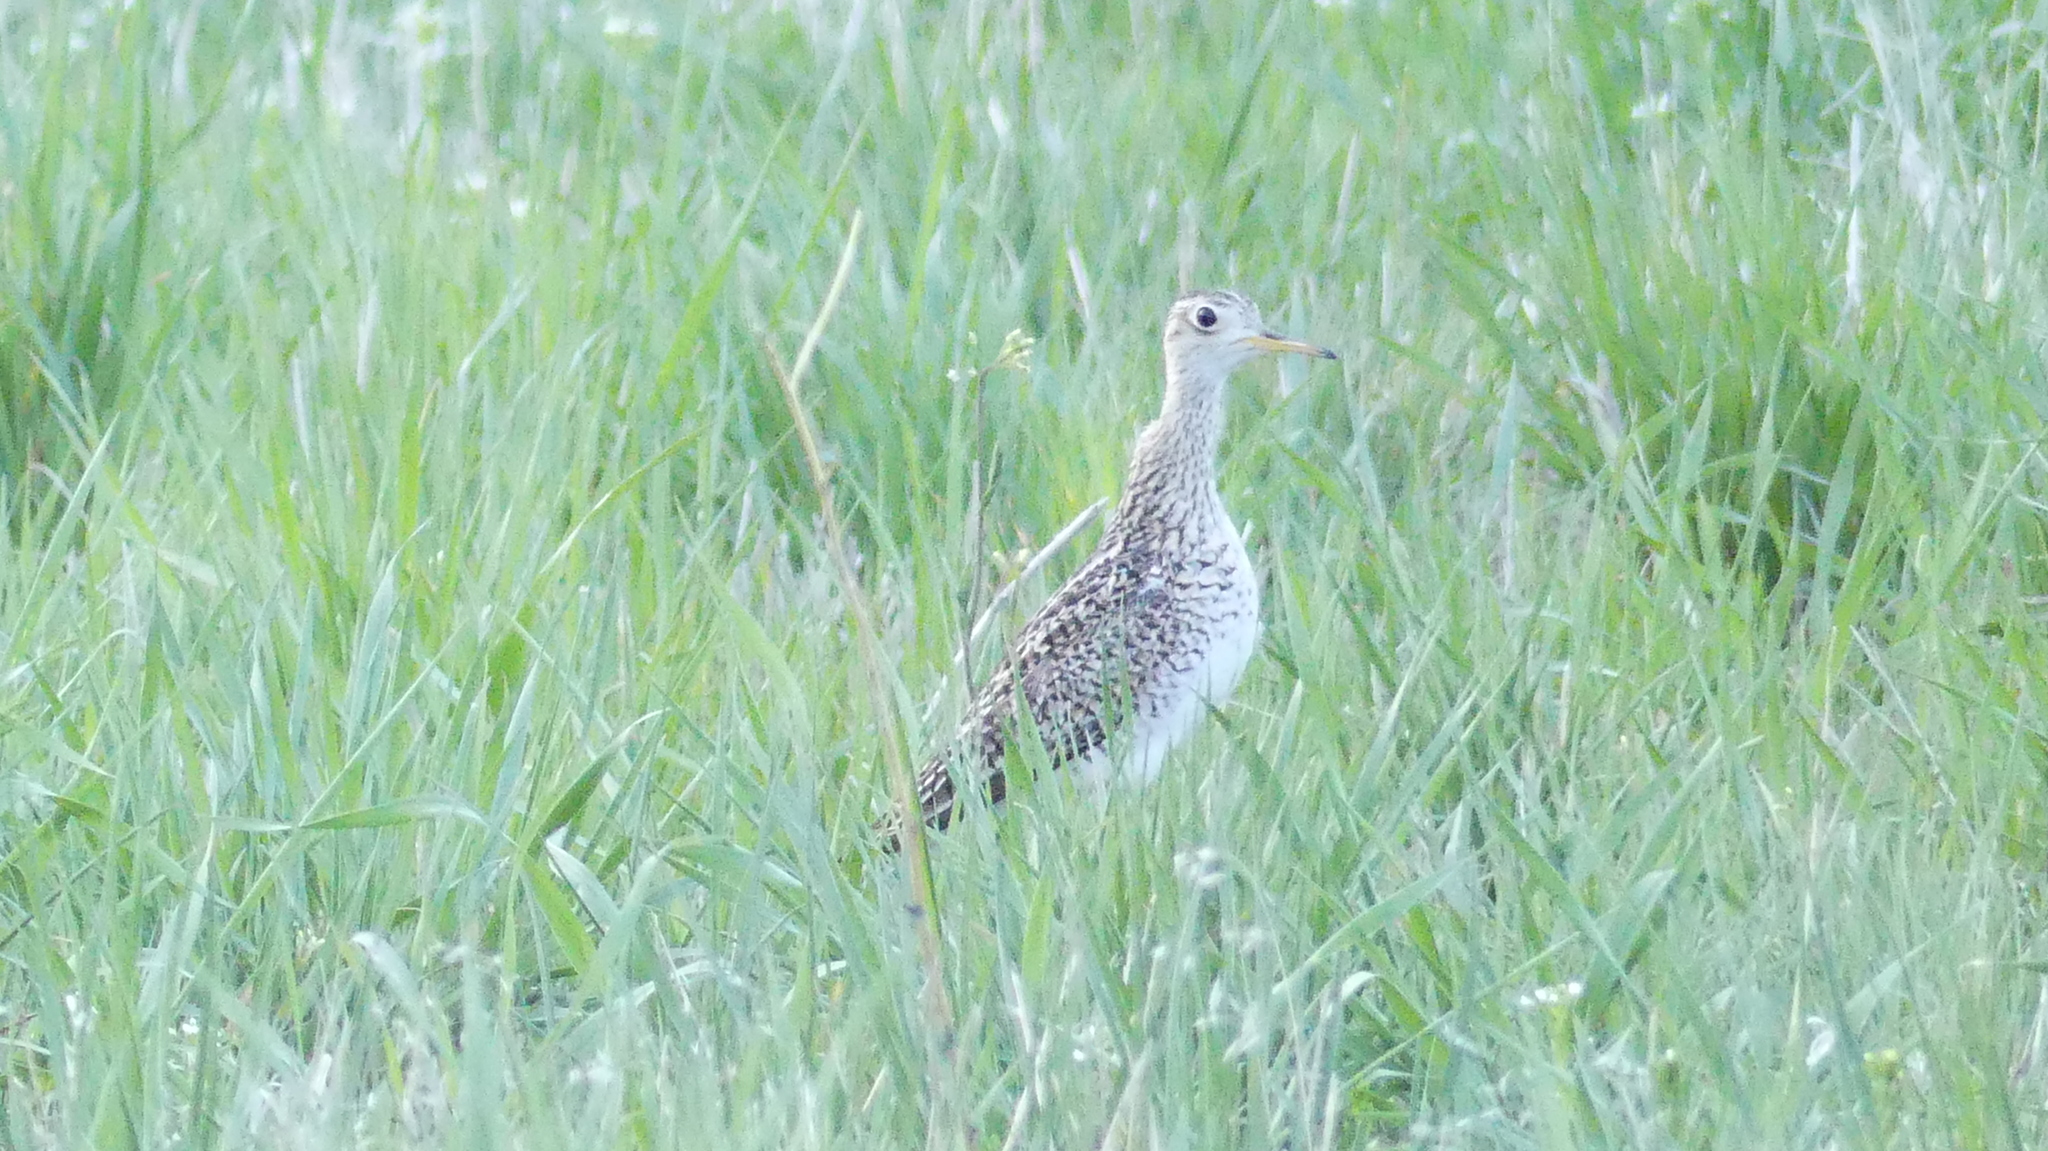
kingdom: Animalia
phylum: Chordata
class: Aves
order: Charadriiformes
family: Scolopacidae
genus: Bartramia
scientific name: Bartramia longicauda
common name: Upland sandpiper
